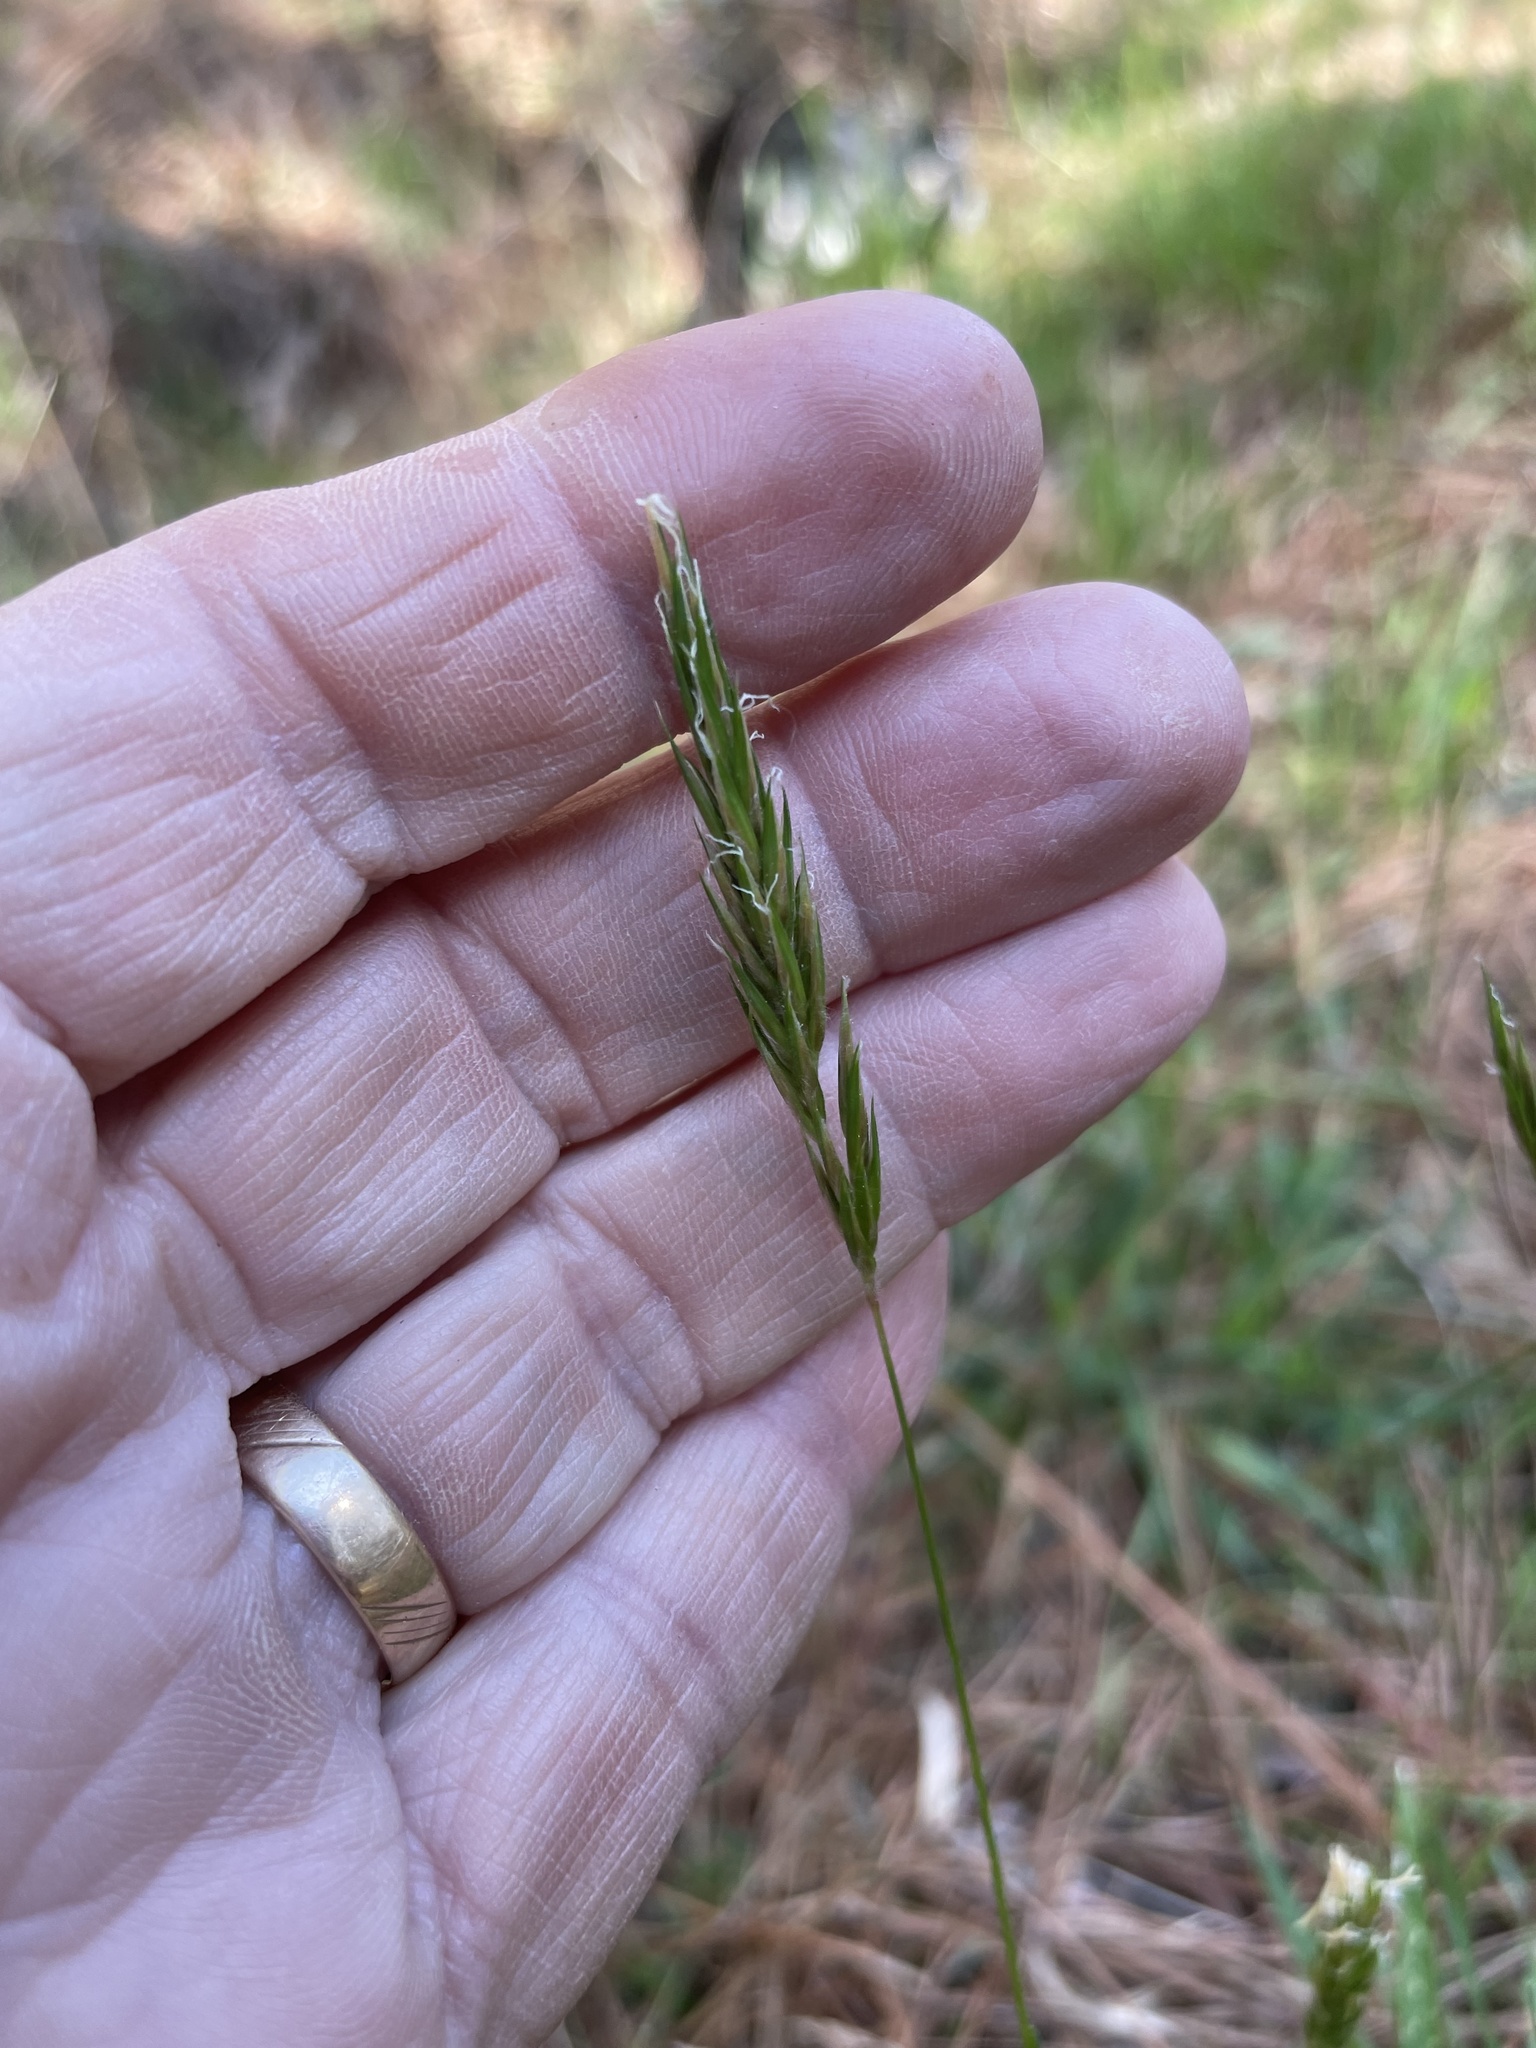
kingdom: Plantae
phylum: Tracheophyta
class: Liliopsida
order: Poales
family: Poaceae
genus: Anthoxanthum
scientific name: Anthoxanthum odoratum
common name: Sweet vernalgrass
